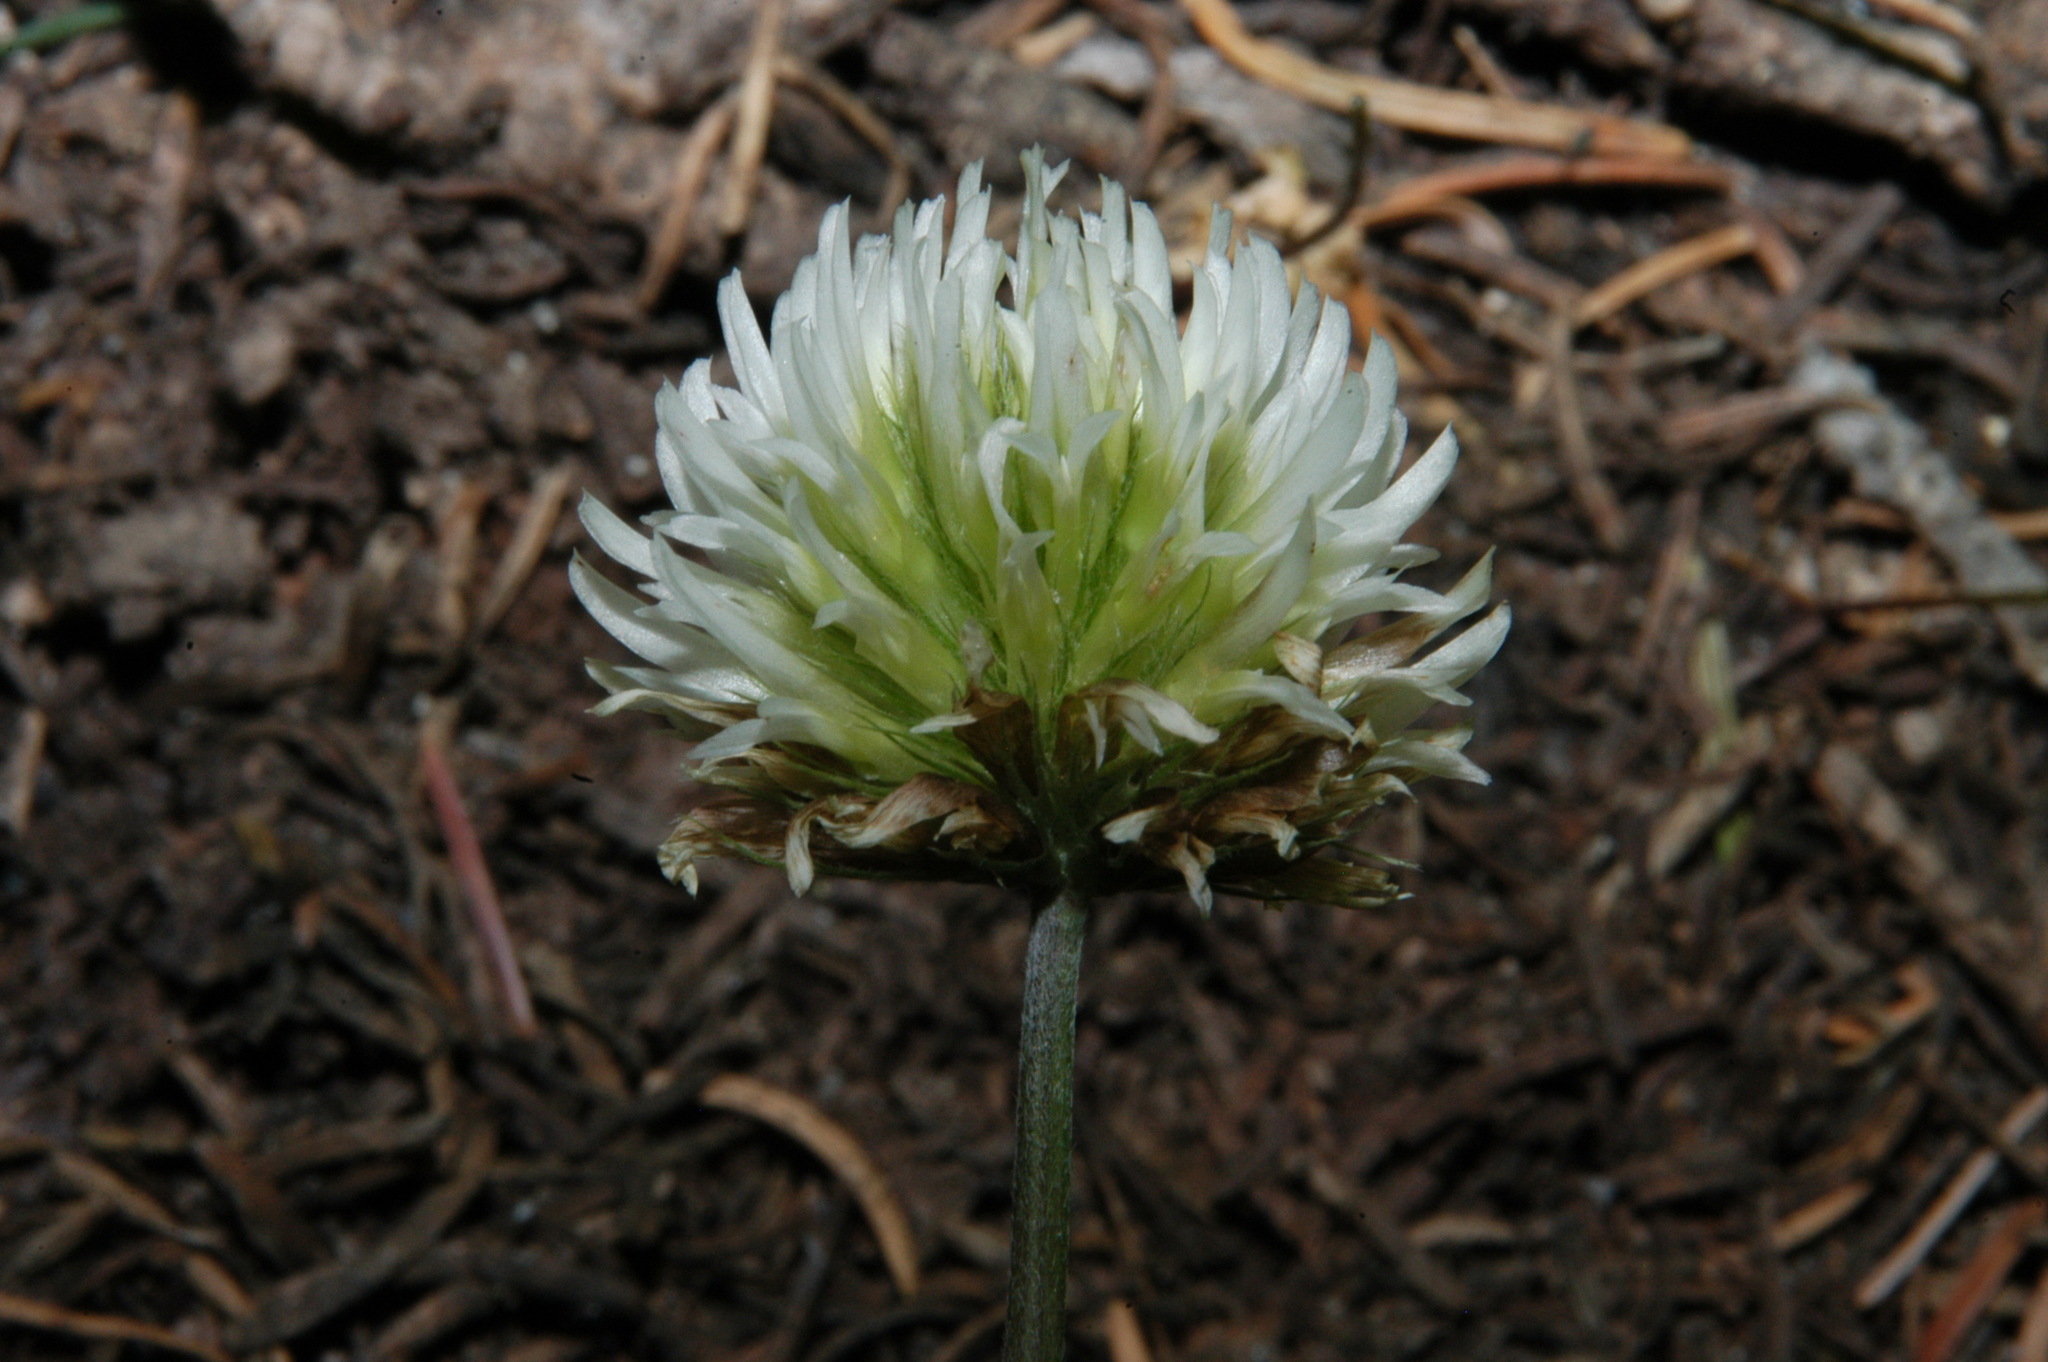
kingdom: Plantae
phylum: Tracheophyta
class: Magnoliopsida
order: Fabales
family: Fabaceae
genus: Trifolium
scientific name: Trifolium longipes
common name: Long-stalk clover
